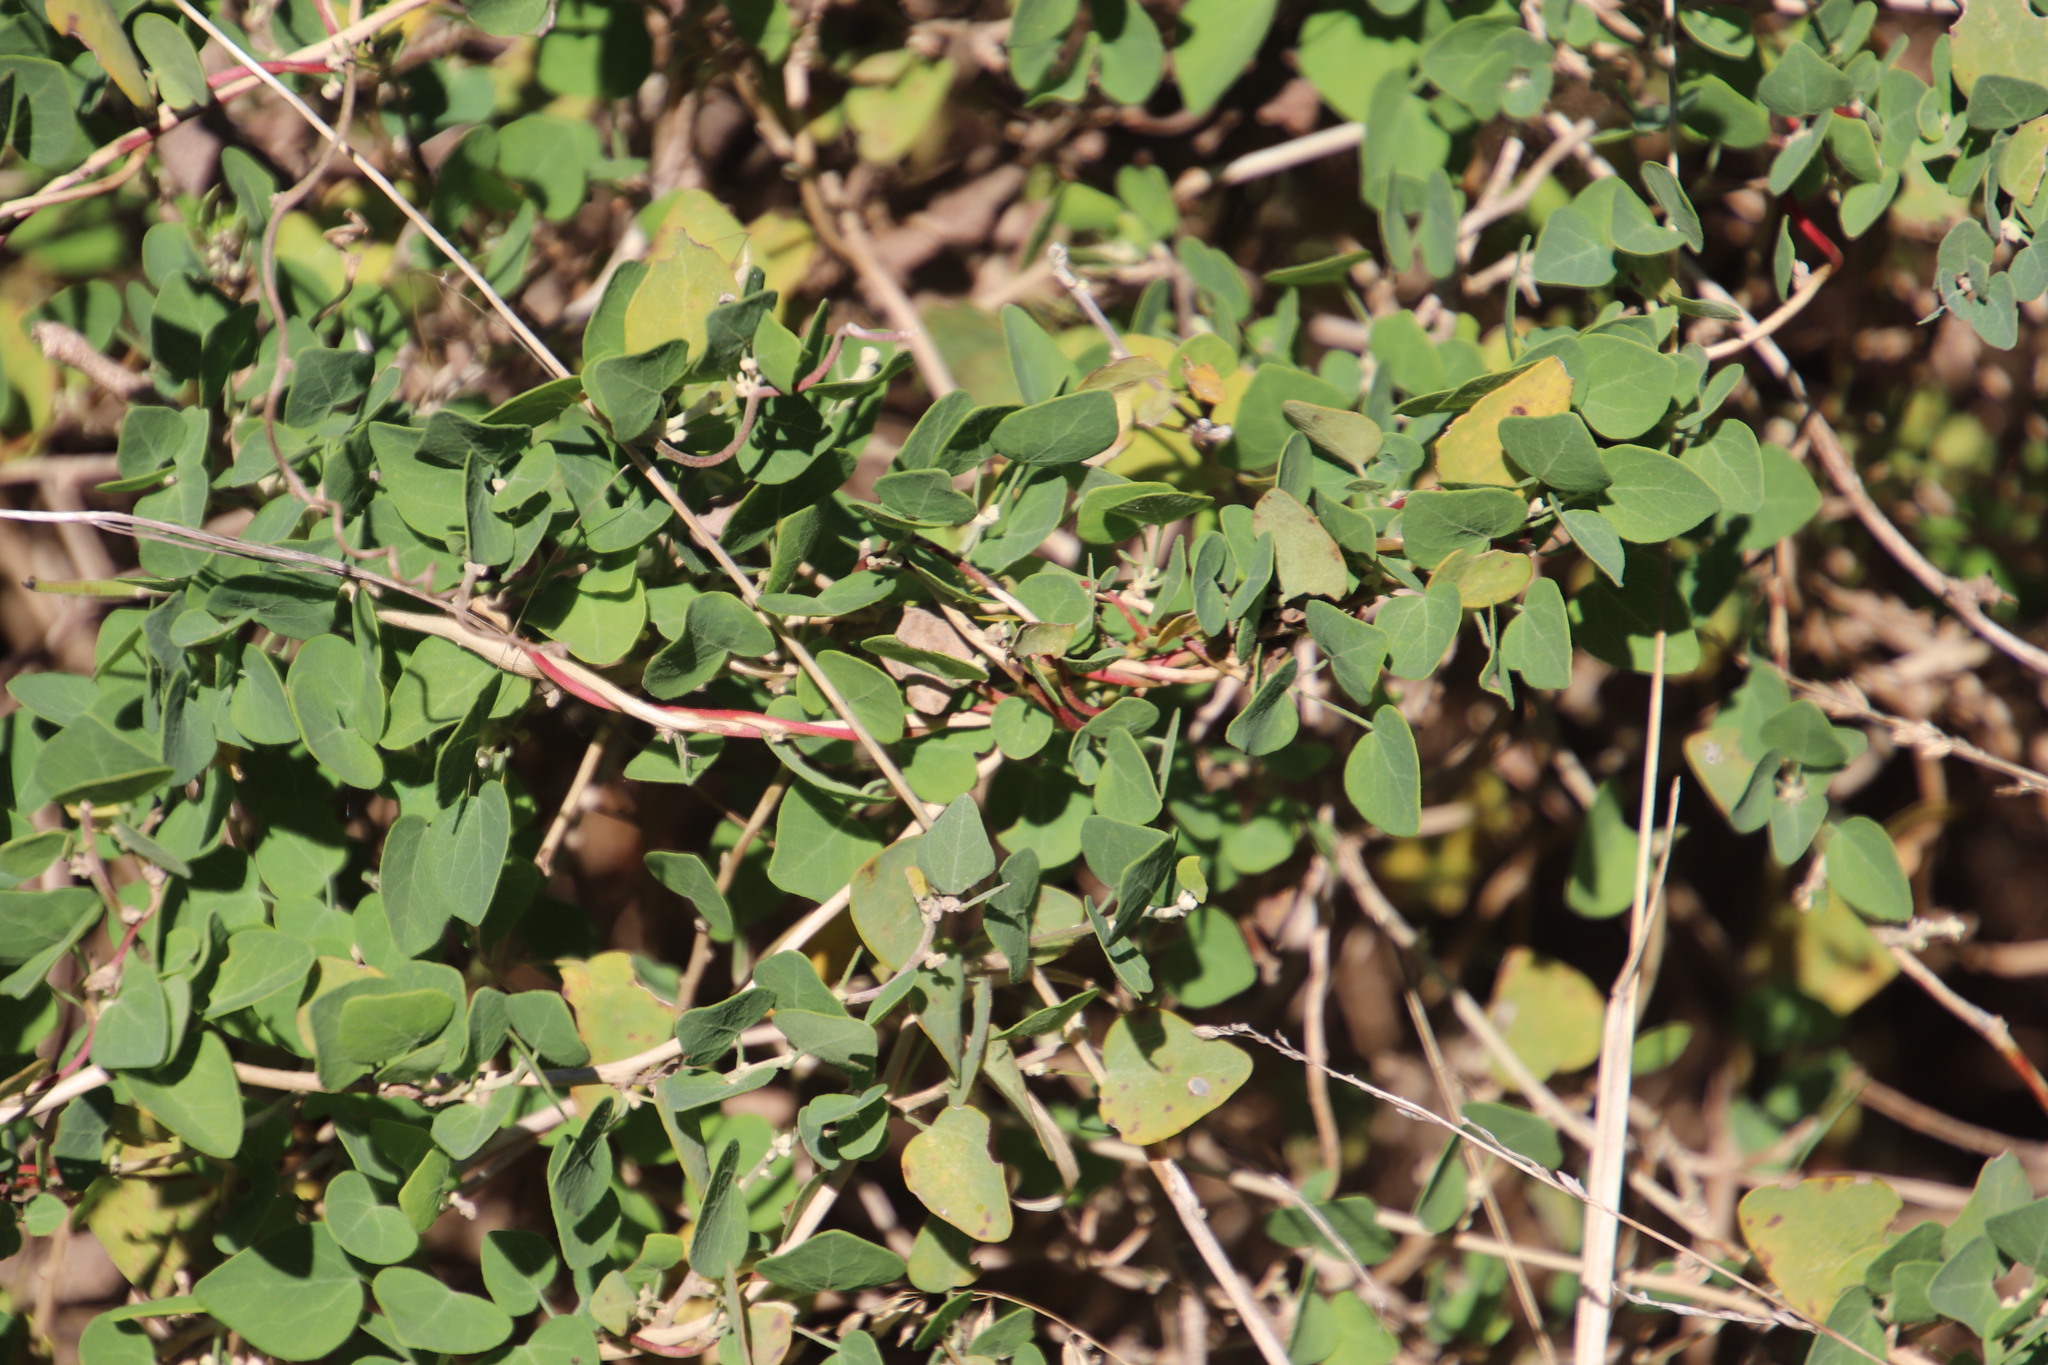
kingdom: Plantae
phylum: Tracheophyta
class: Magnoliopsida
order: Ranunculales
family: Menispermaceae
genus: Cissampelos
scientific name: Cissampelos capensis
